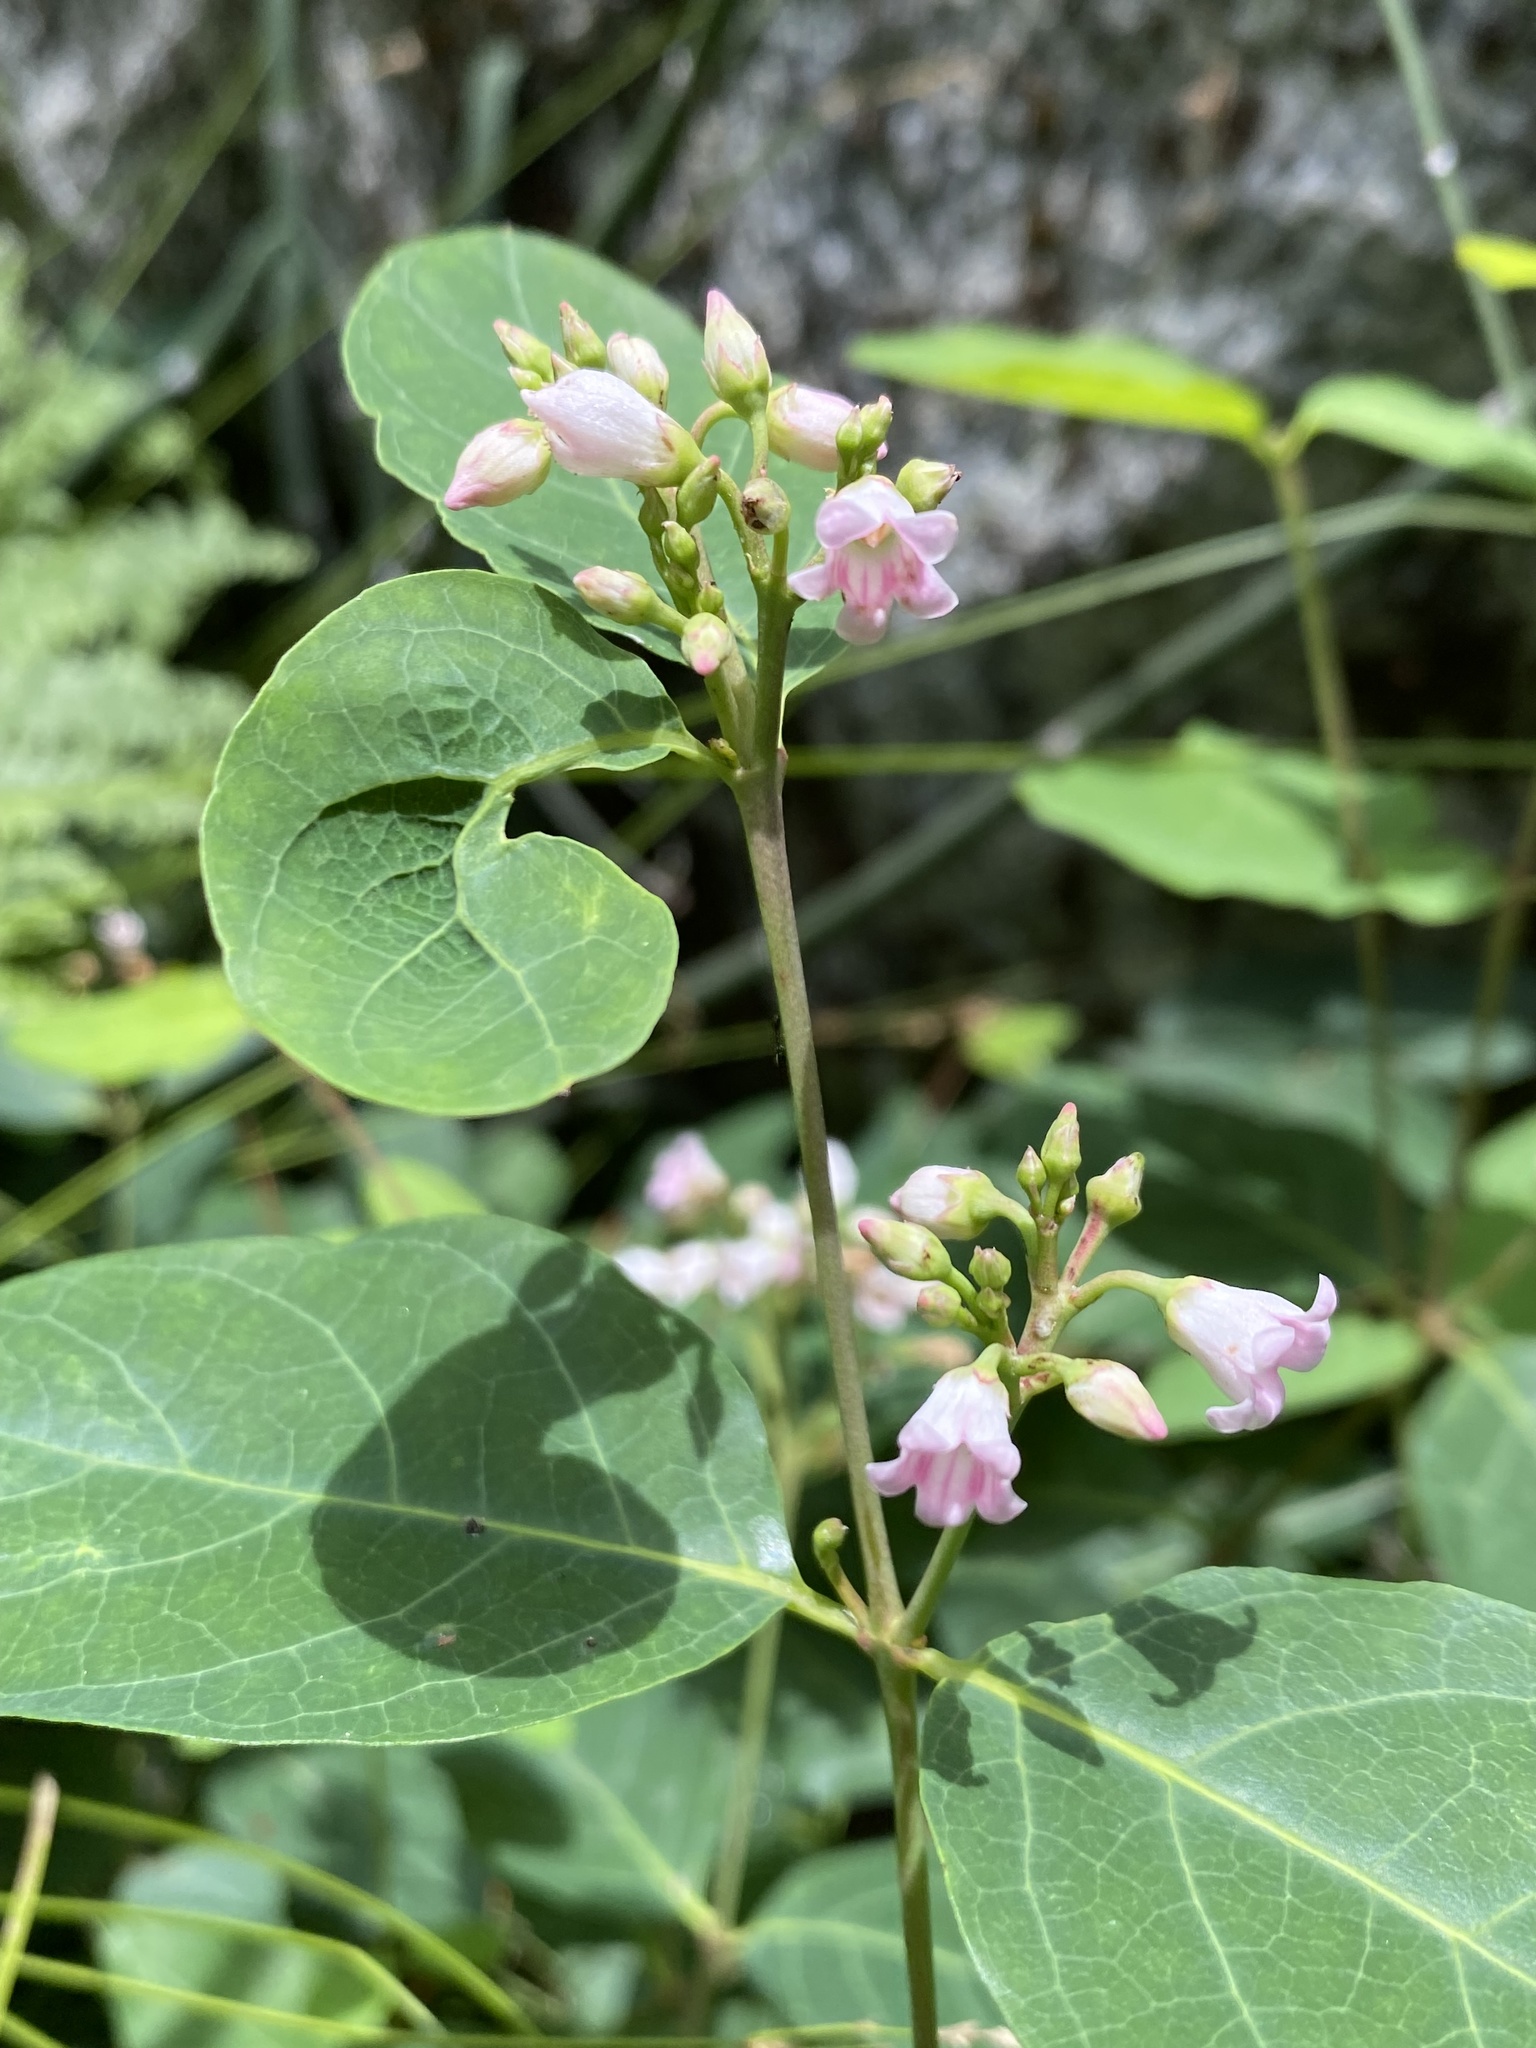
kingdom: Plantae
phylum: Tracheophyta
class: Magnoliopsida
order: Gentianales
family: Apocynaceae
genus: Apocynum
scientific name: Apocynum androsaemifolium
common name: Spreading dogbane
